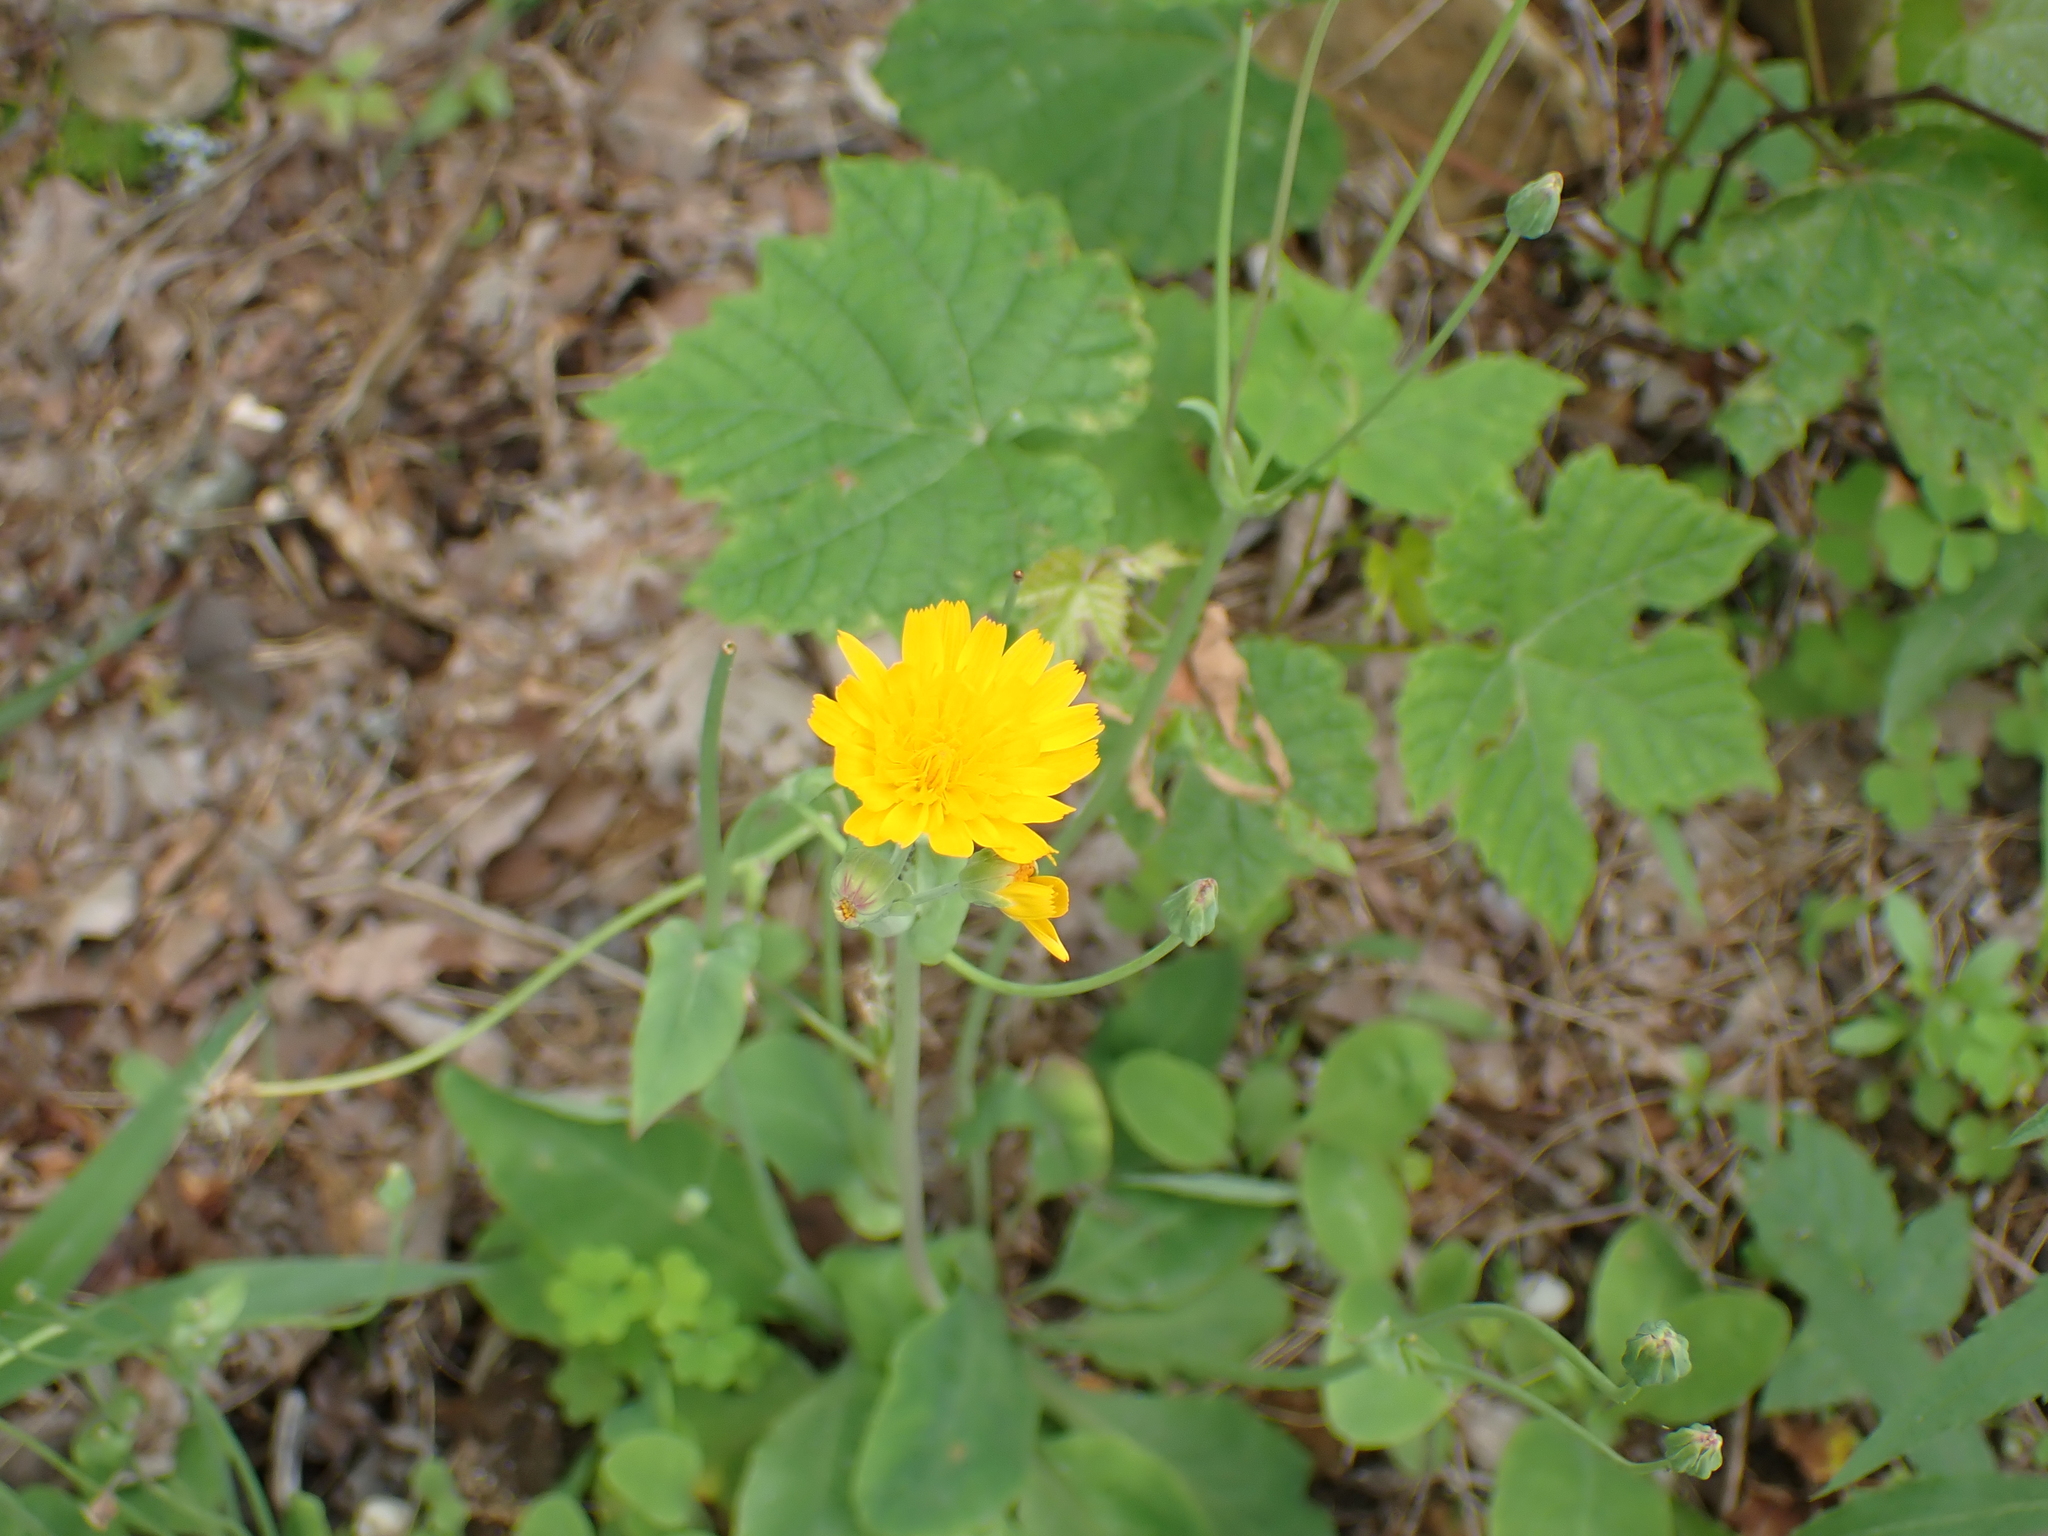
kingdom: Plantae
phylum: Tracheophyta
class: Magnoliopsida
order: Asterales
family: Asteraceae
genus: Krigia
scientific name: Krigia biflora
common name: Orange dwarf-dandelion
